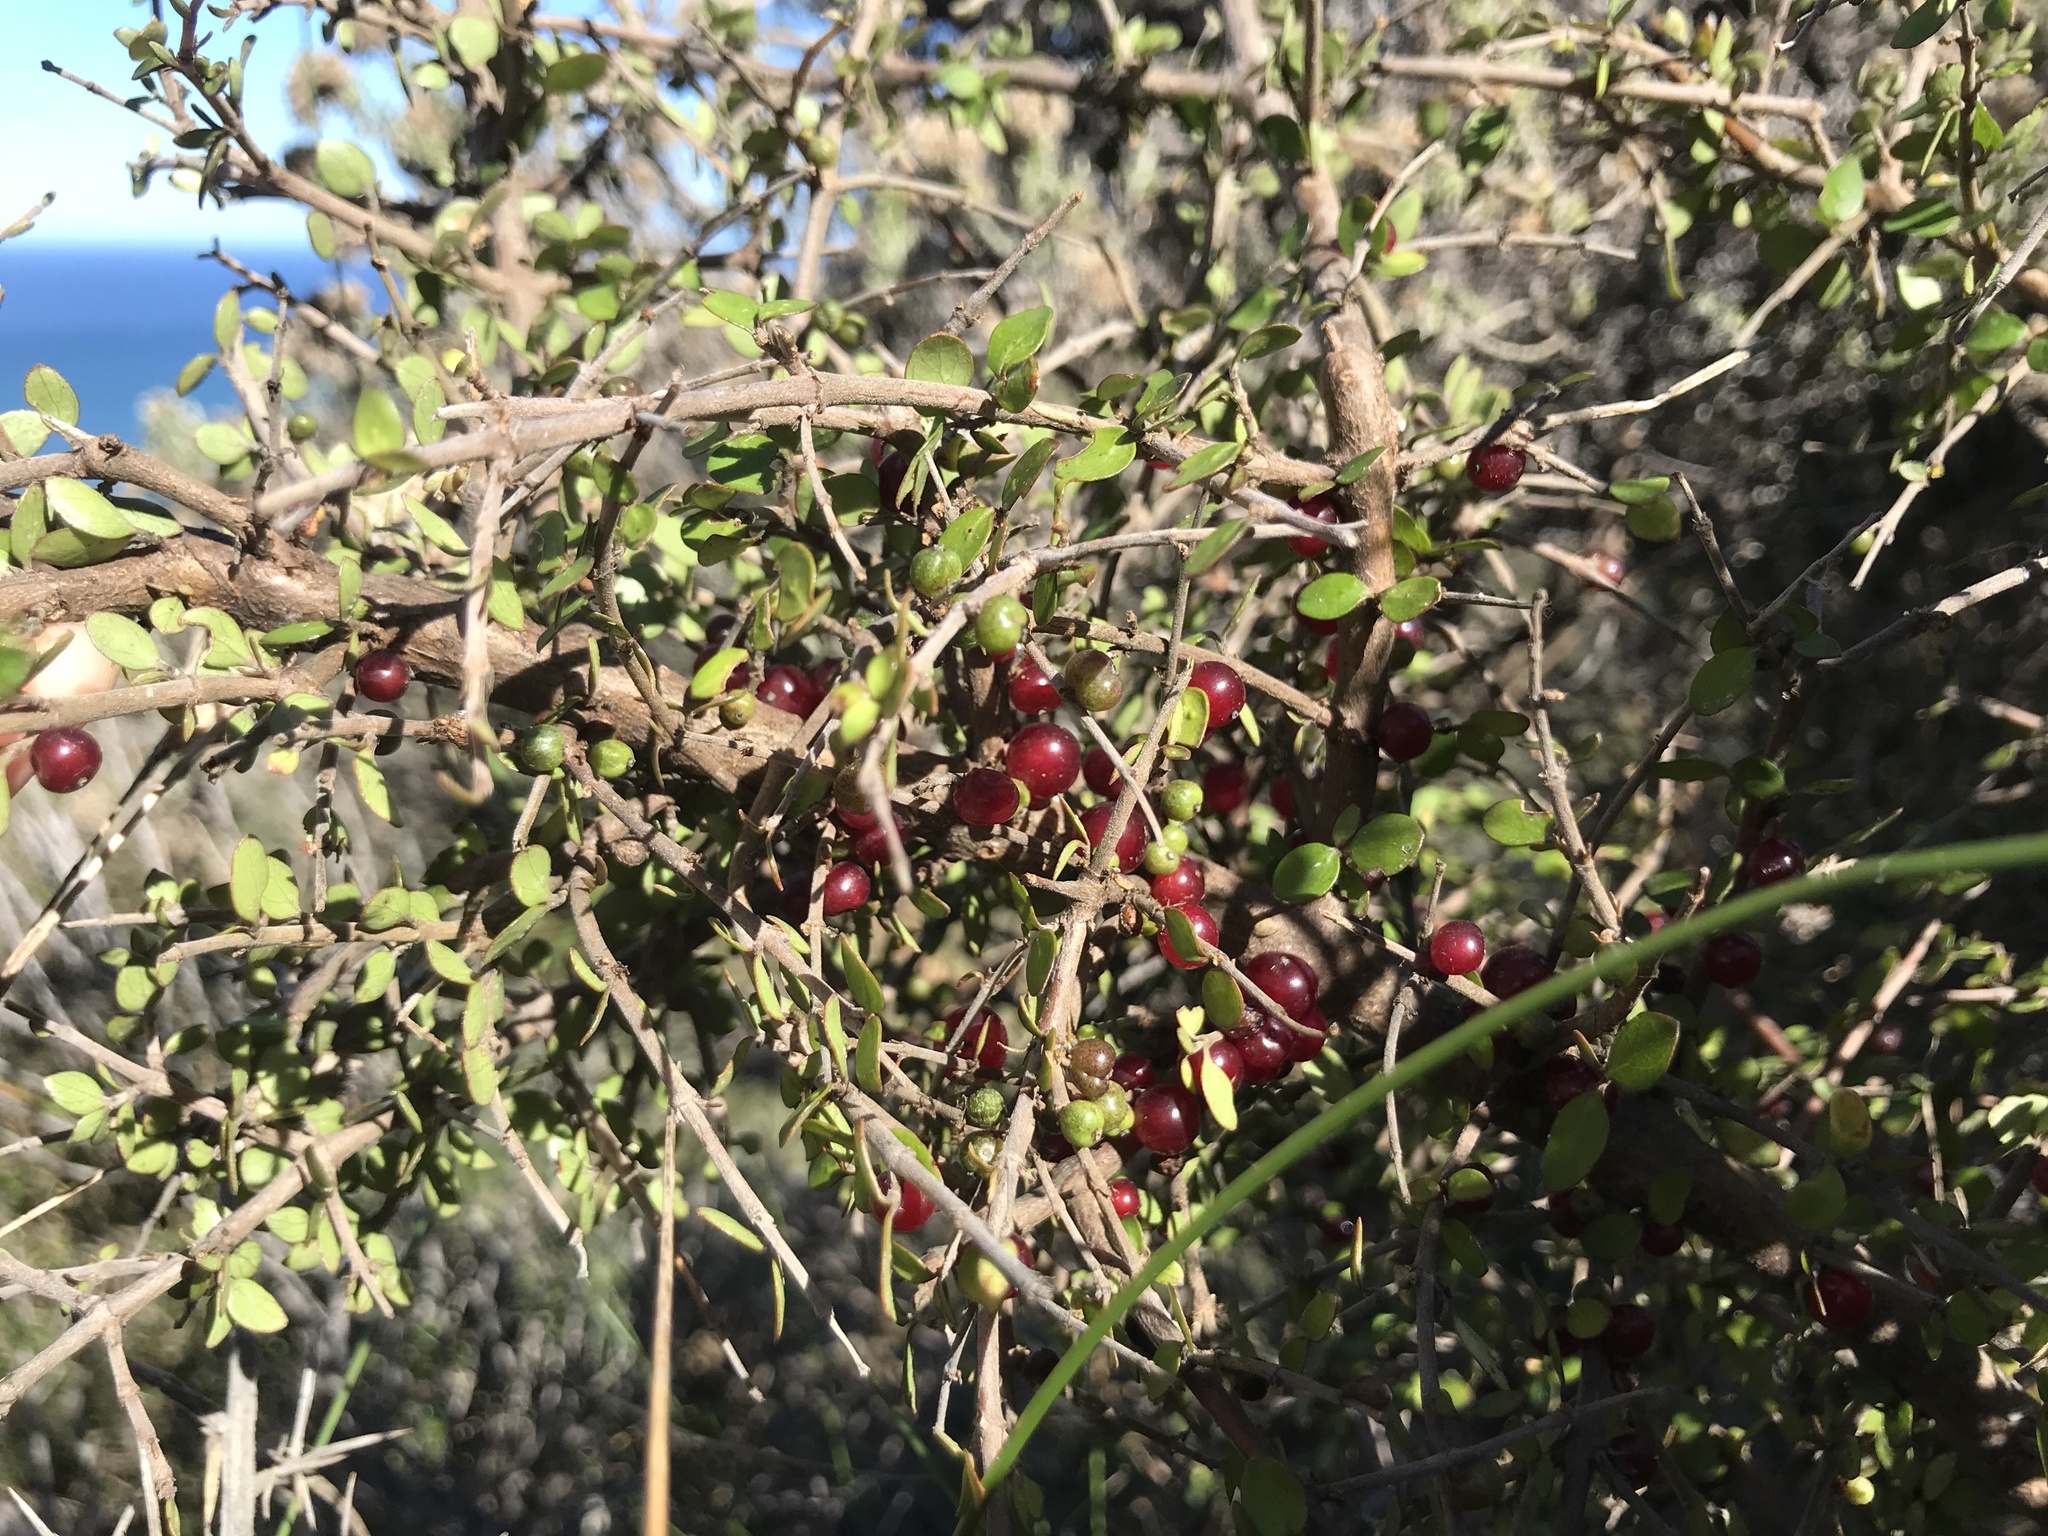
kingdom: Plantae
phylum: Tracheophyta
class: Magnoliopsida
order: Gentianales
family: Rubiaceae
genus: Coprosma
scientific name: Coprosma rhamnoides
